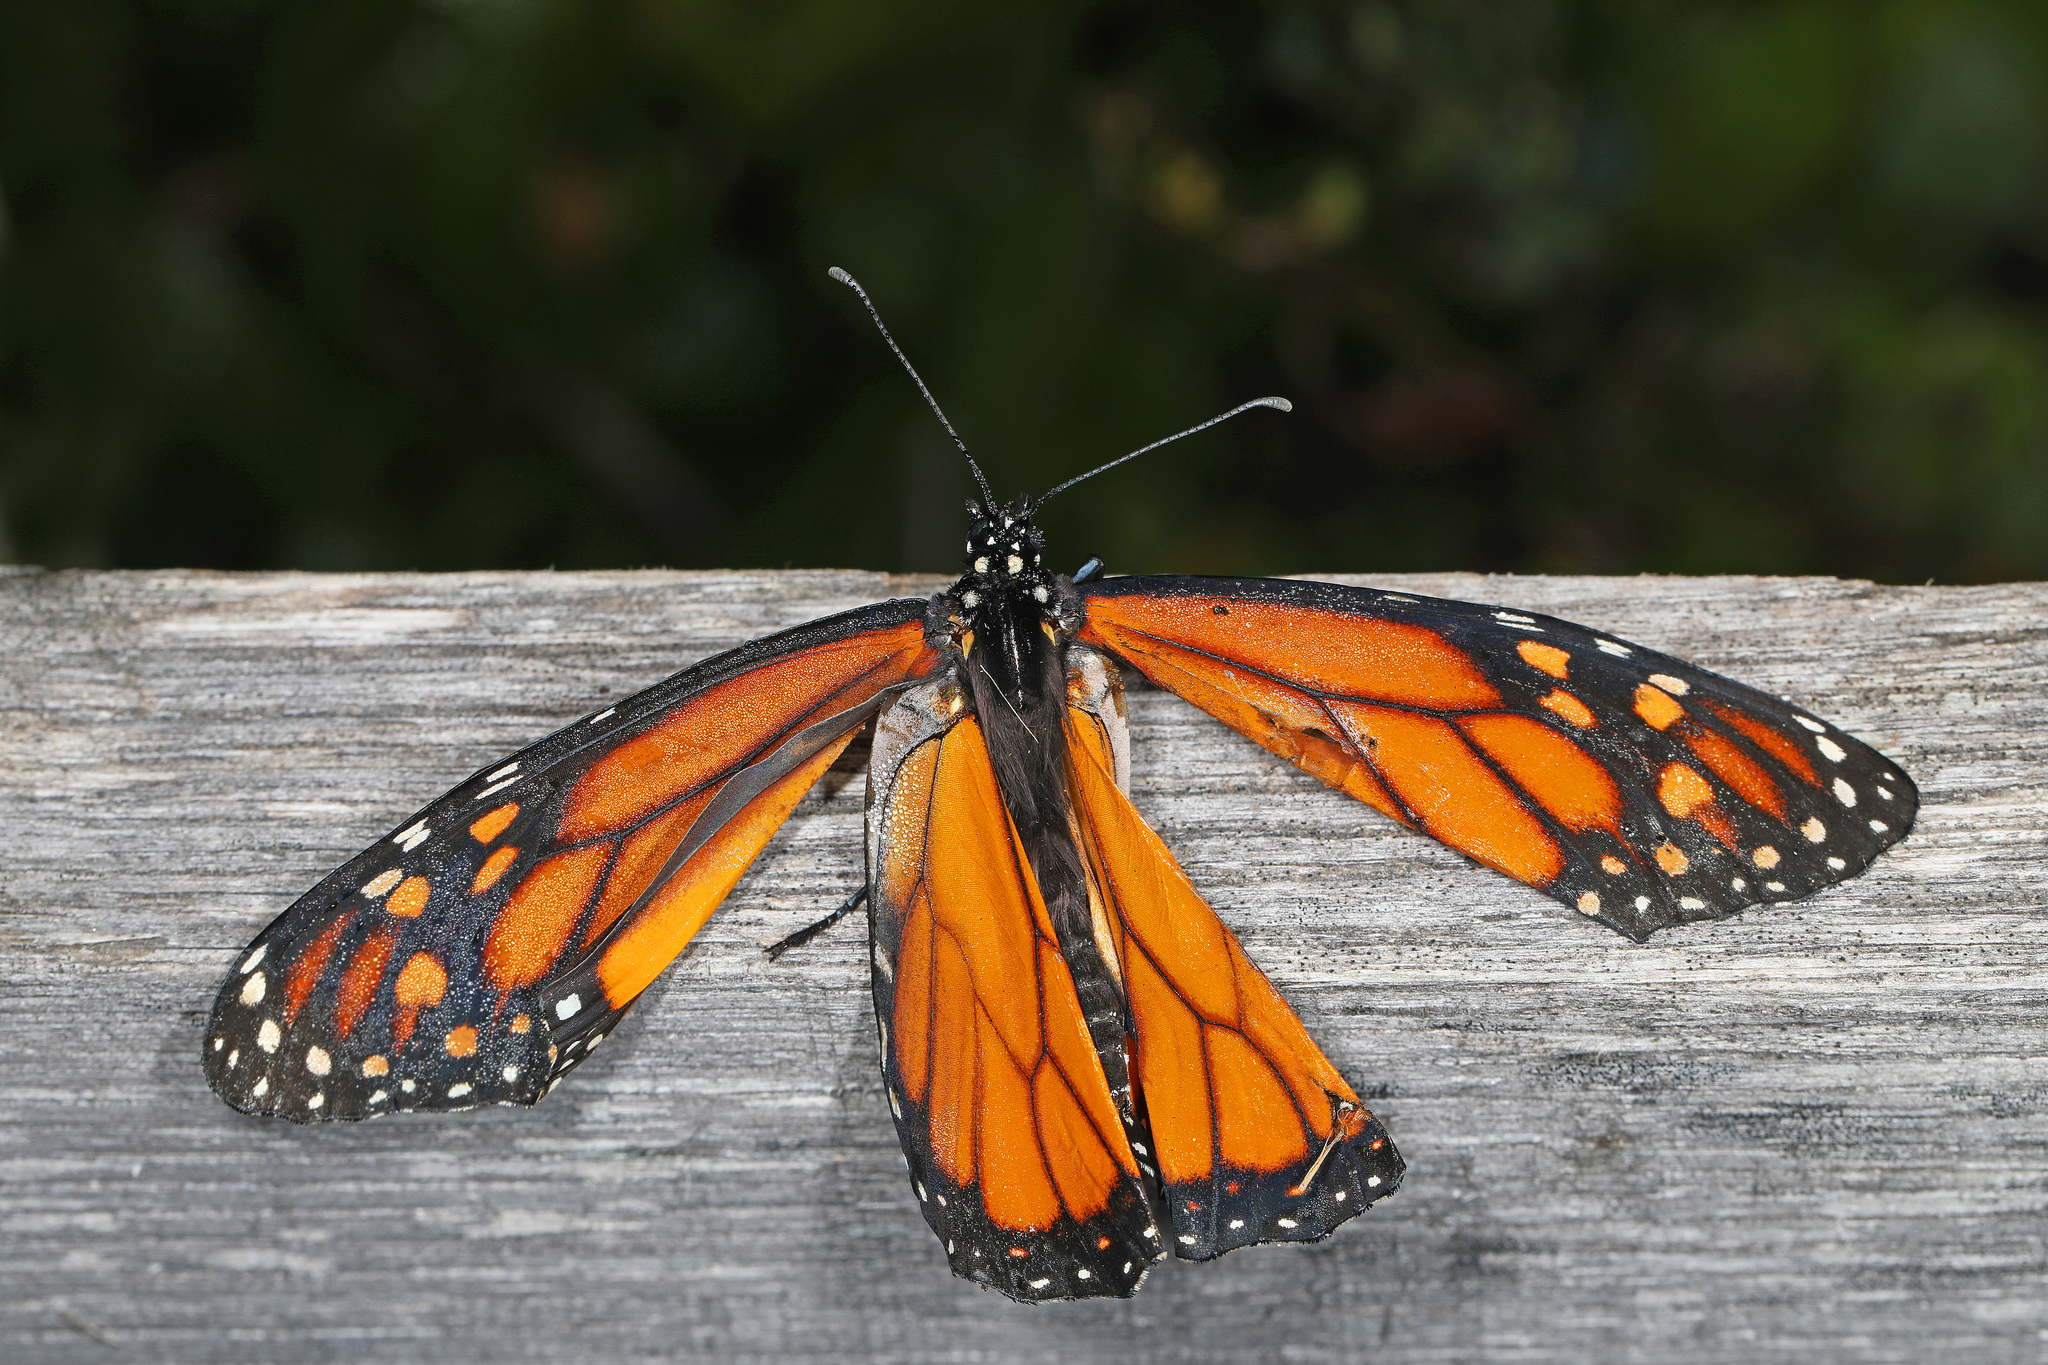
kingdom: Animalia
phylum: Arthropoda
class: Insecta
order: Lepidoptera
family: Nymphalidae
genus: Danaus
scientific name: Danaus plexippus
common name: Monarch
